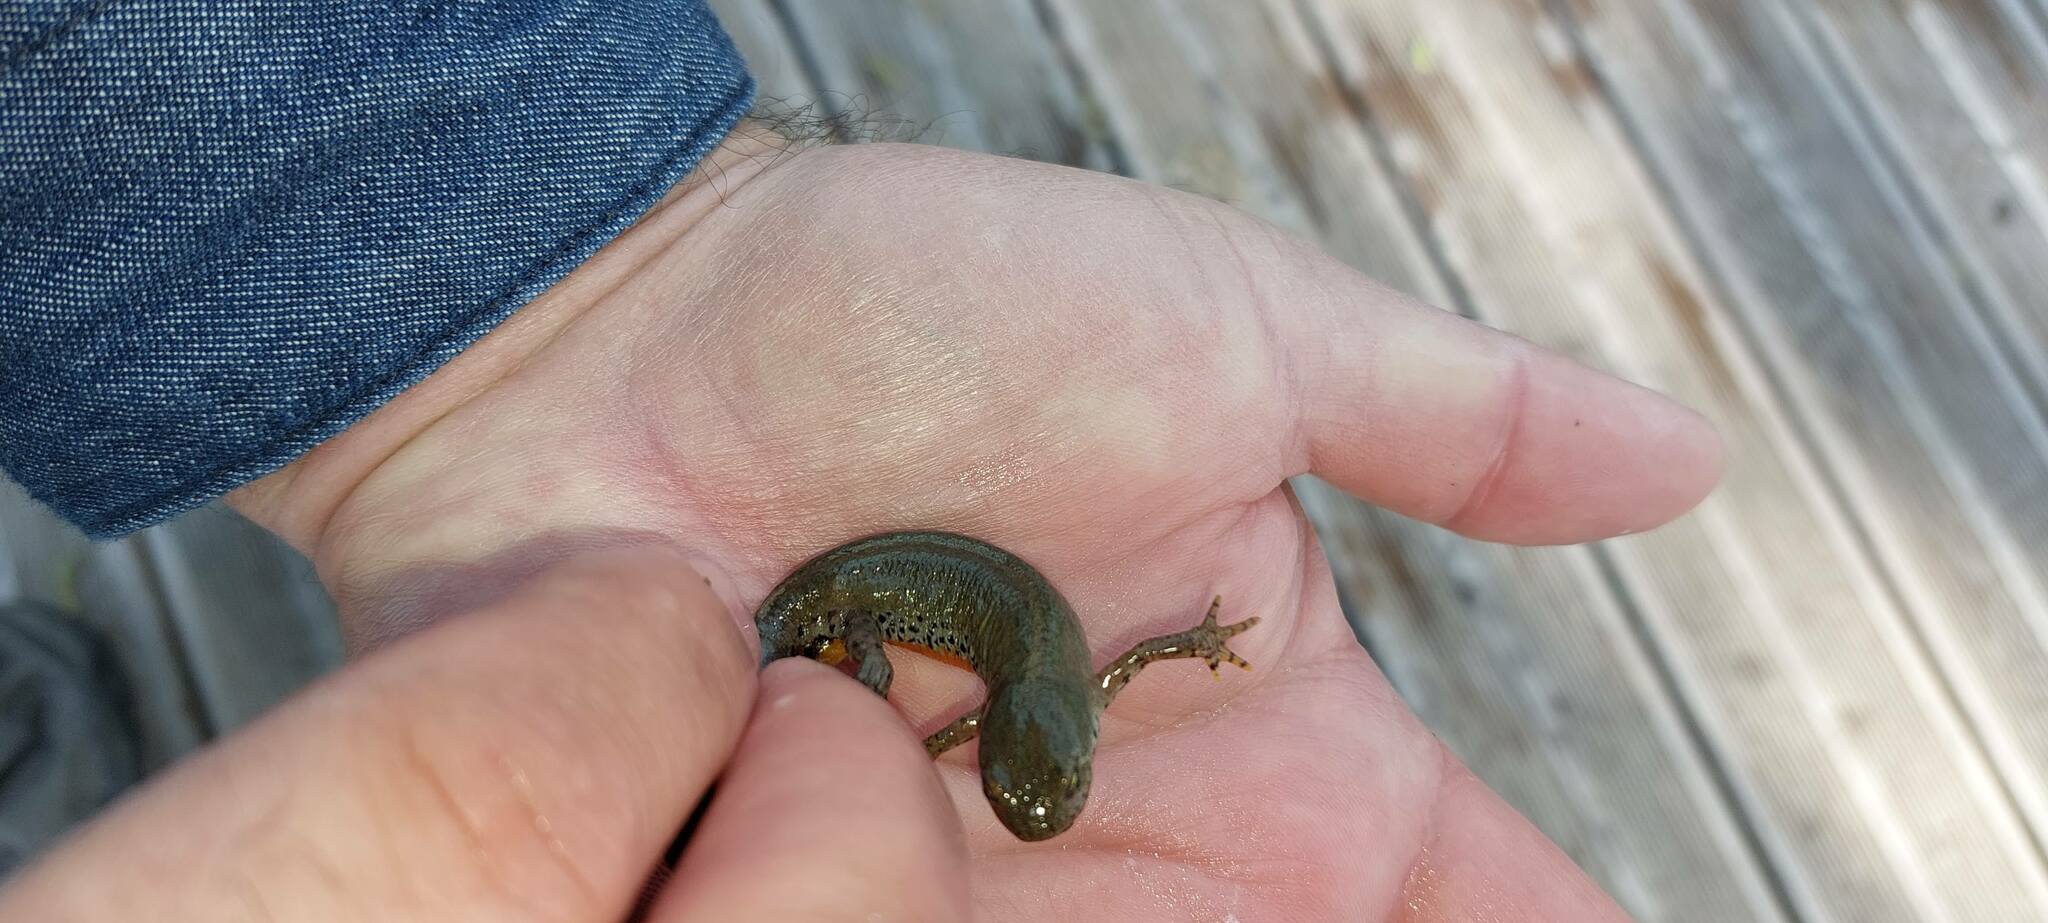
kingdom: Animalia
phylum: Chordata
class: Amphibia
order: Caudata
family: Salamandridae
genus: Ichthyosaura
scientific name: Ichthyosaura alpestris
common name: Alpine newt
